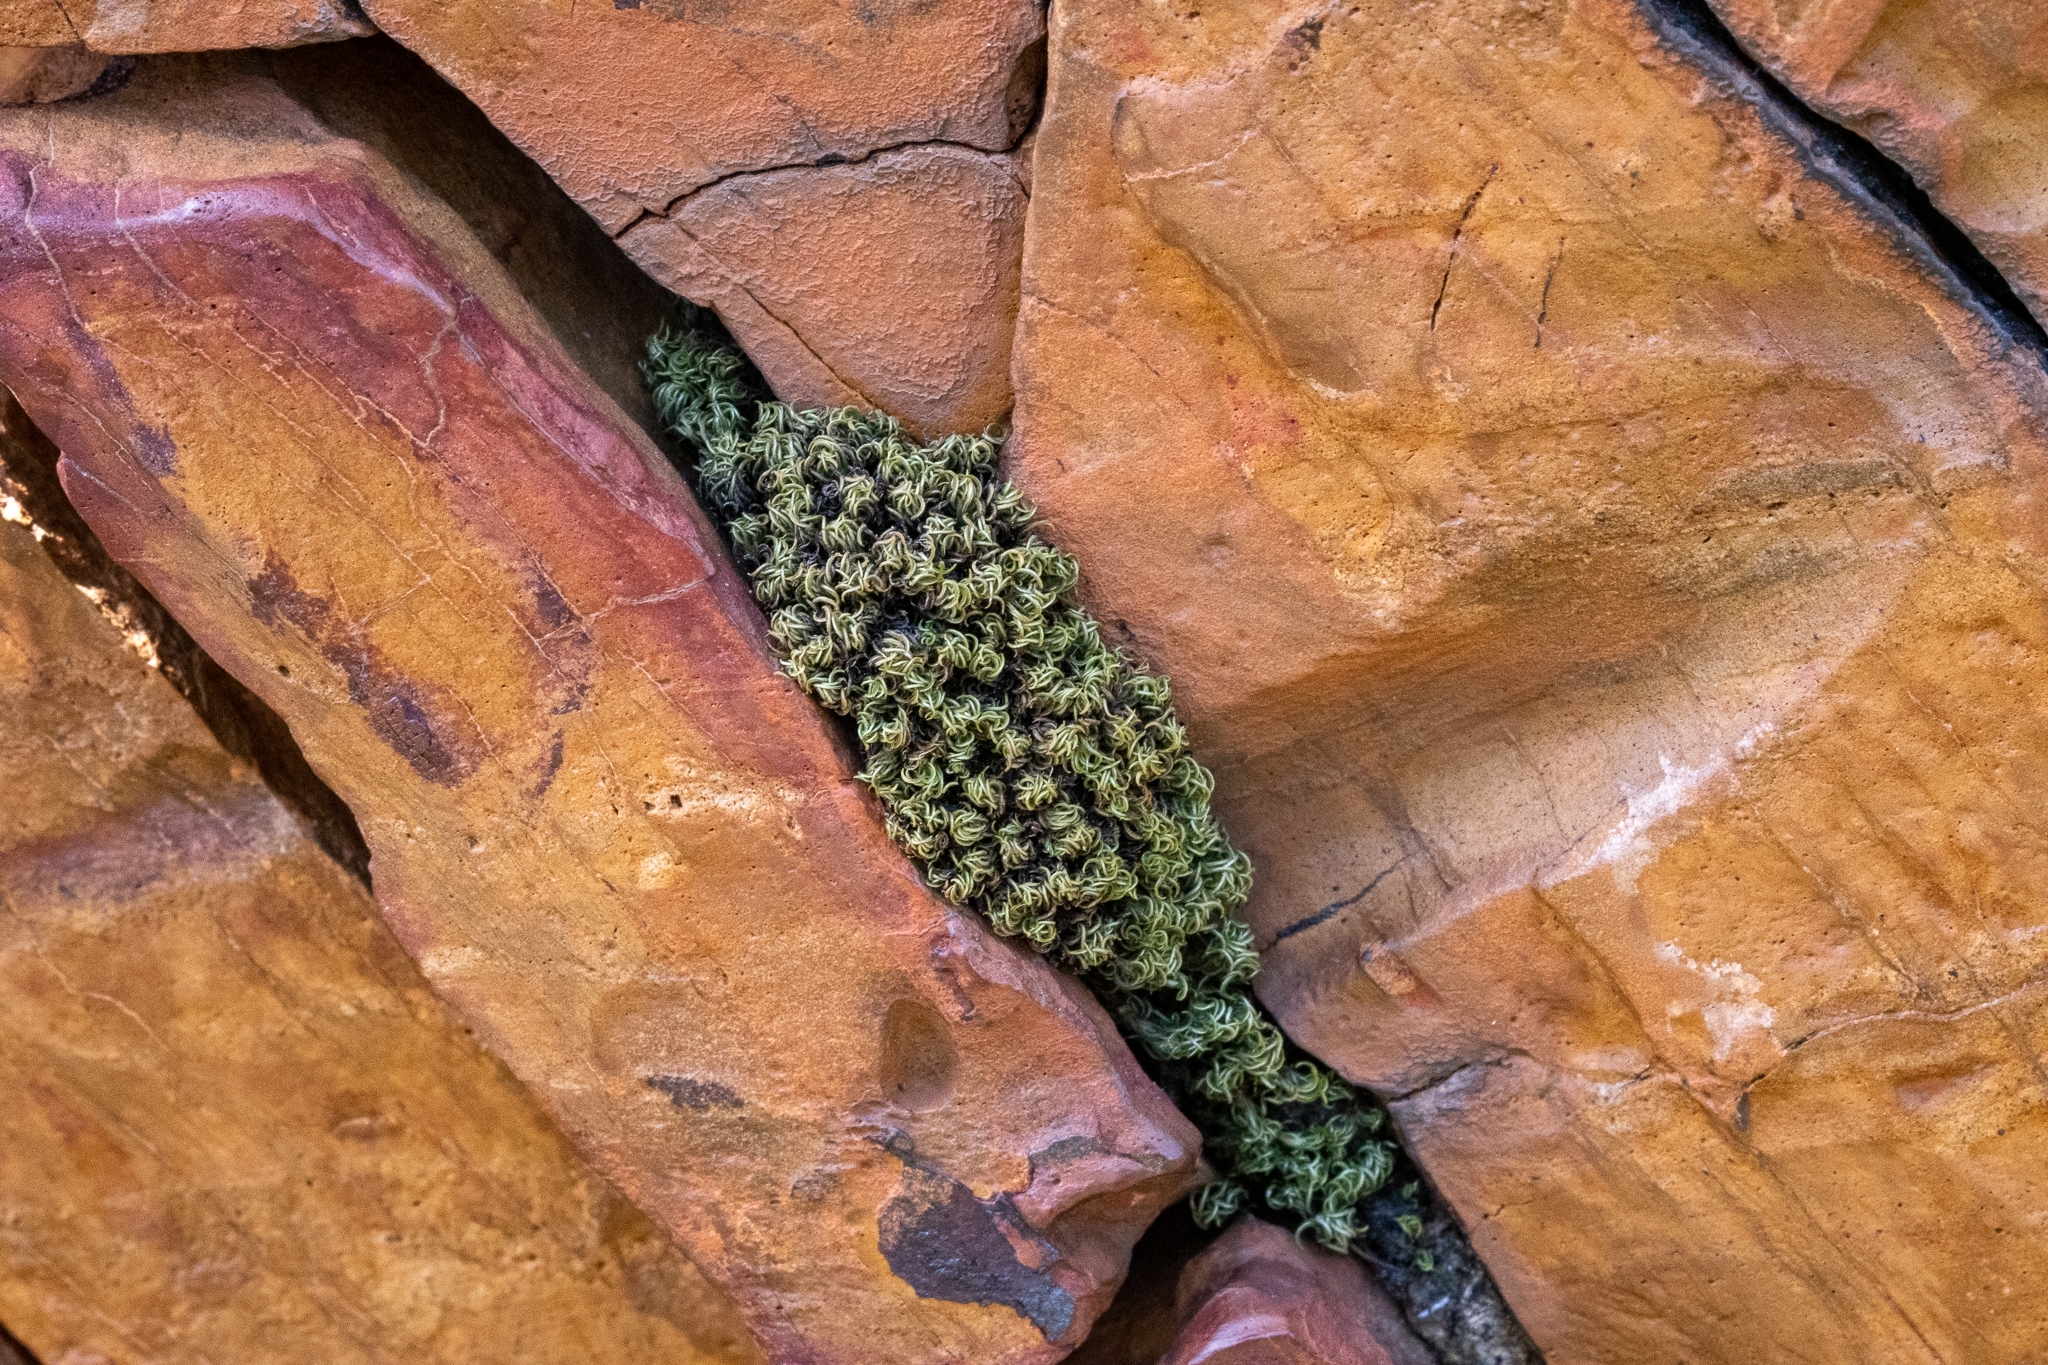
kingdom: Plantae
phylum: Bryophyta
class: Bryopsida
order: Dicranales
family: Hypodontiaceae
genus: Hypodontium
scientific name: Hypodontium dregei
